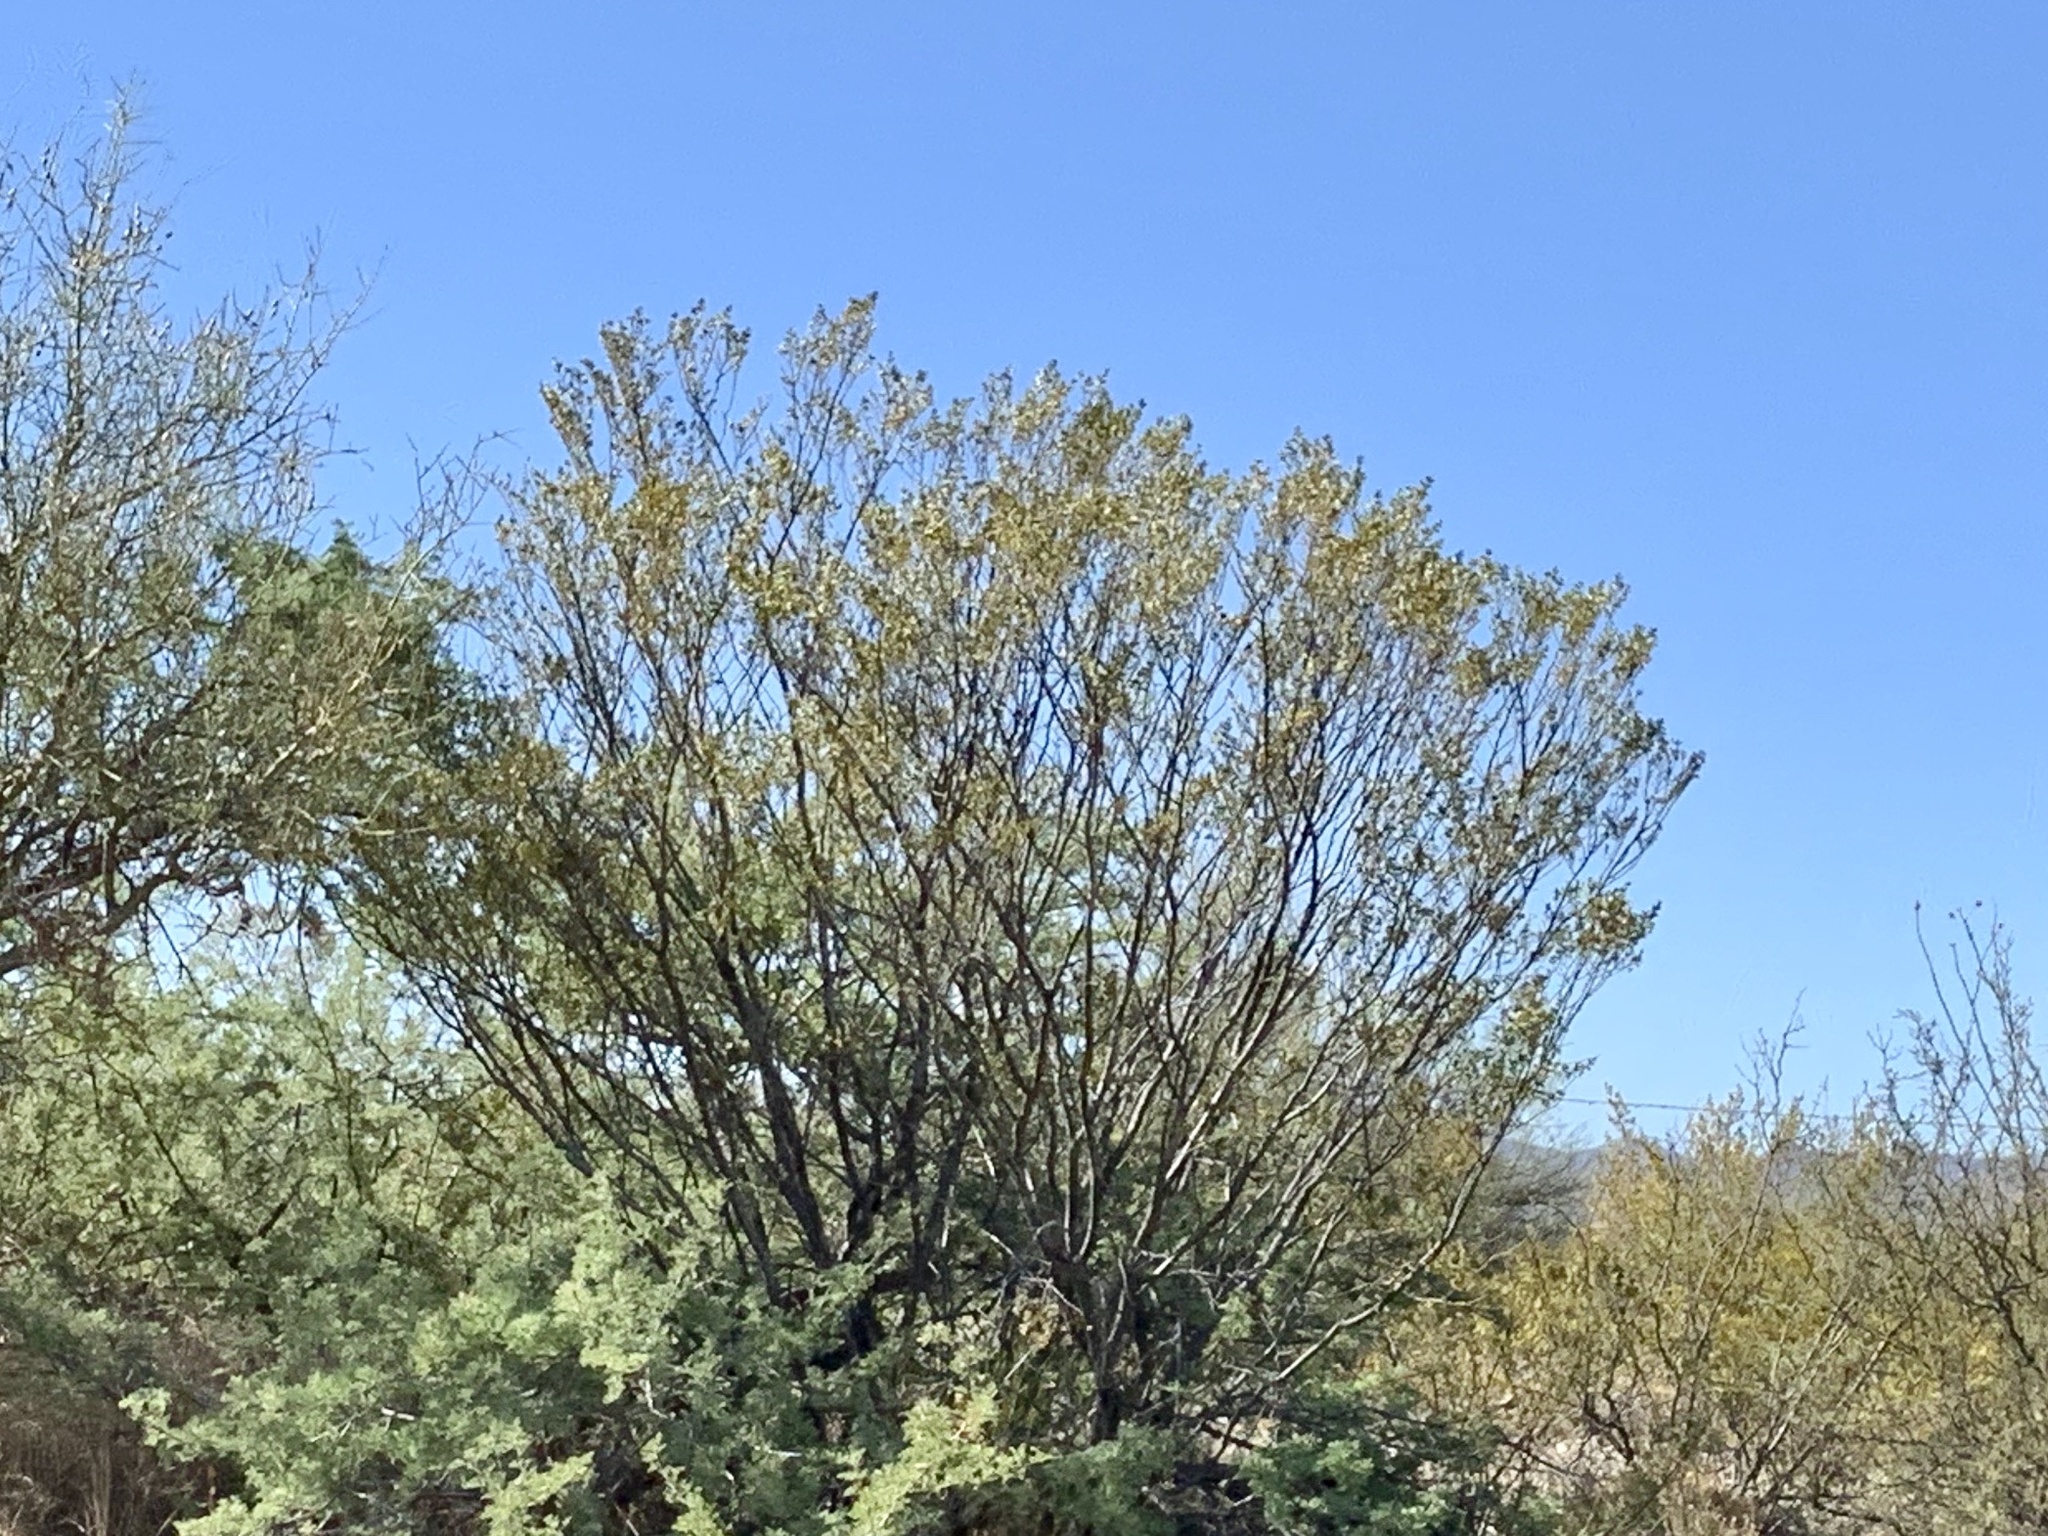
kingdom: Plantae
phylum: Tracheophyta
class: Magnoliopsida
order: Zygophyllales
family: Zygophyllaceae
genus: Larrea
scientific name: Larrea tridentata
